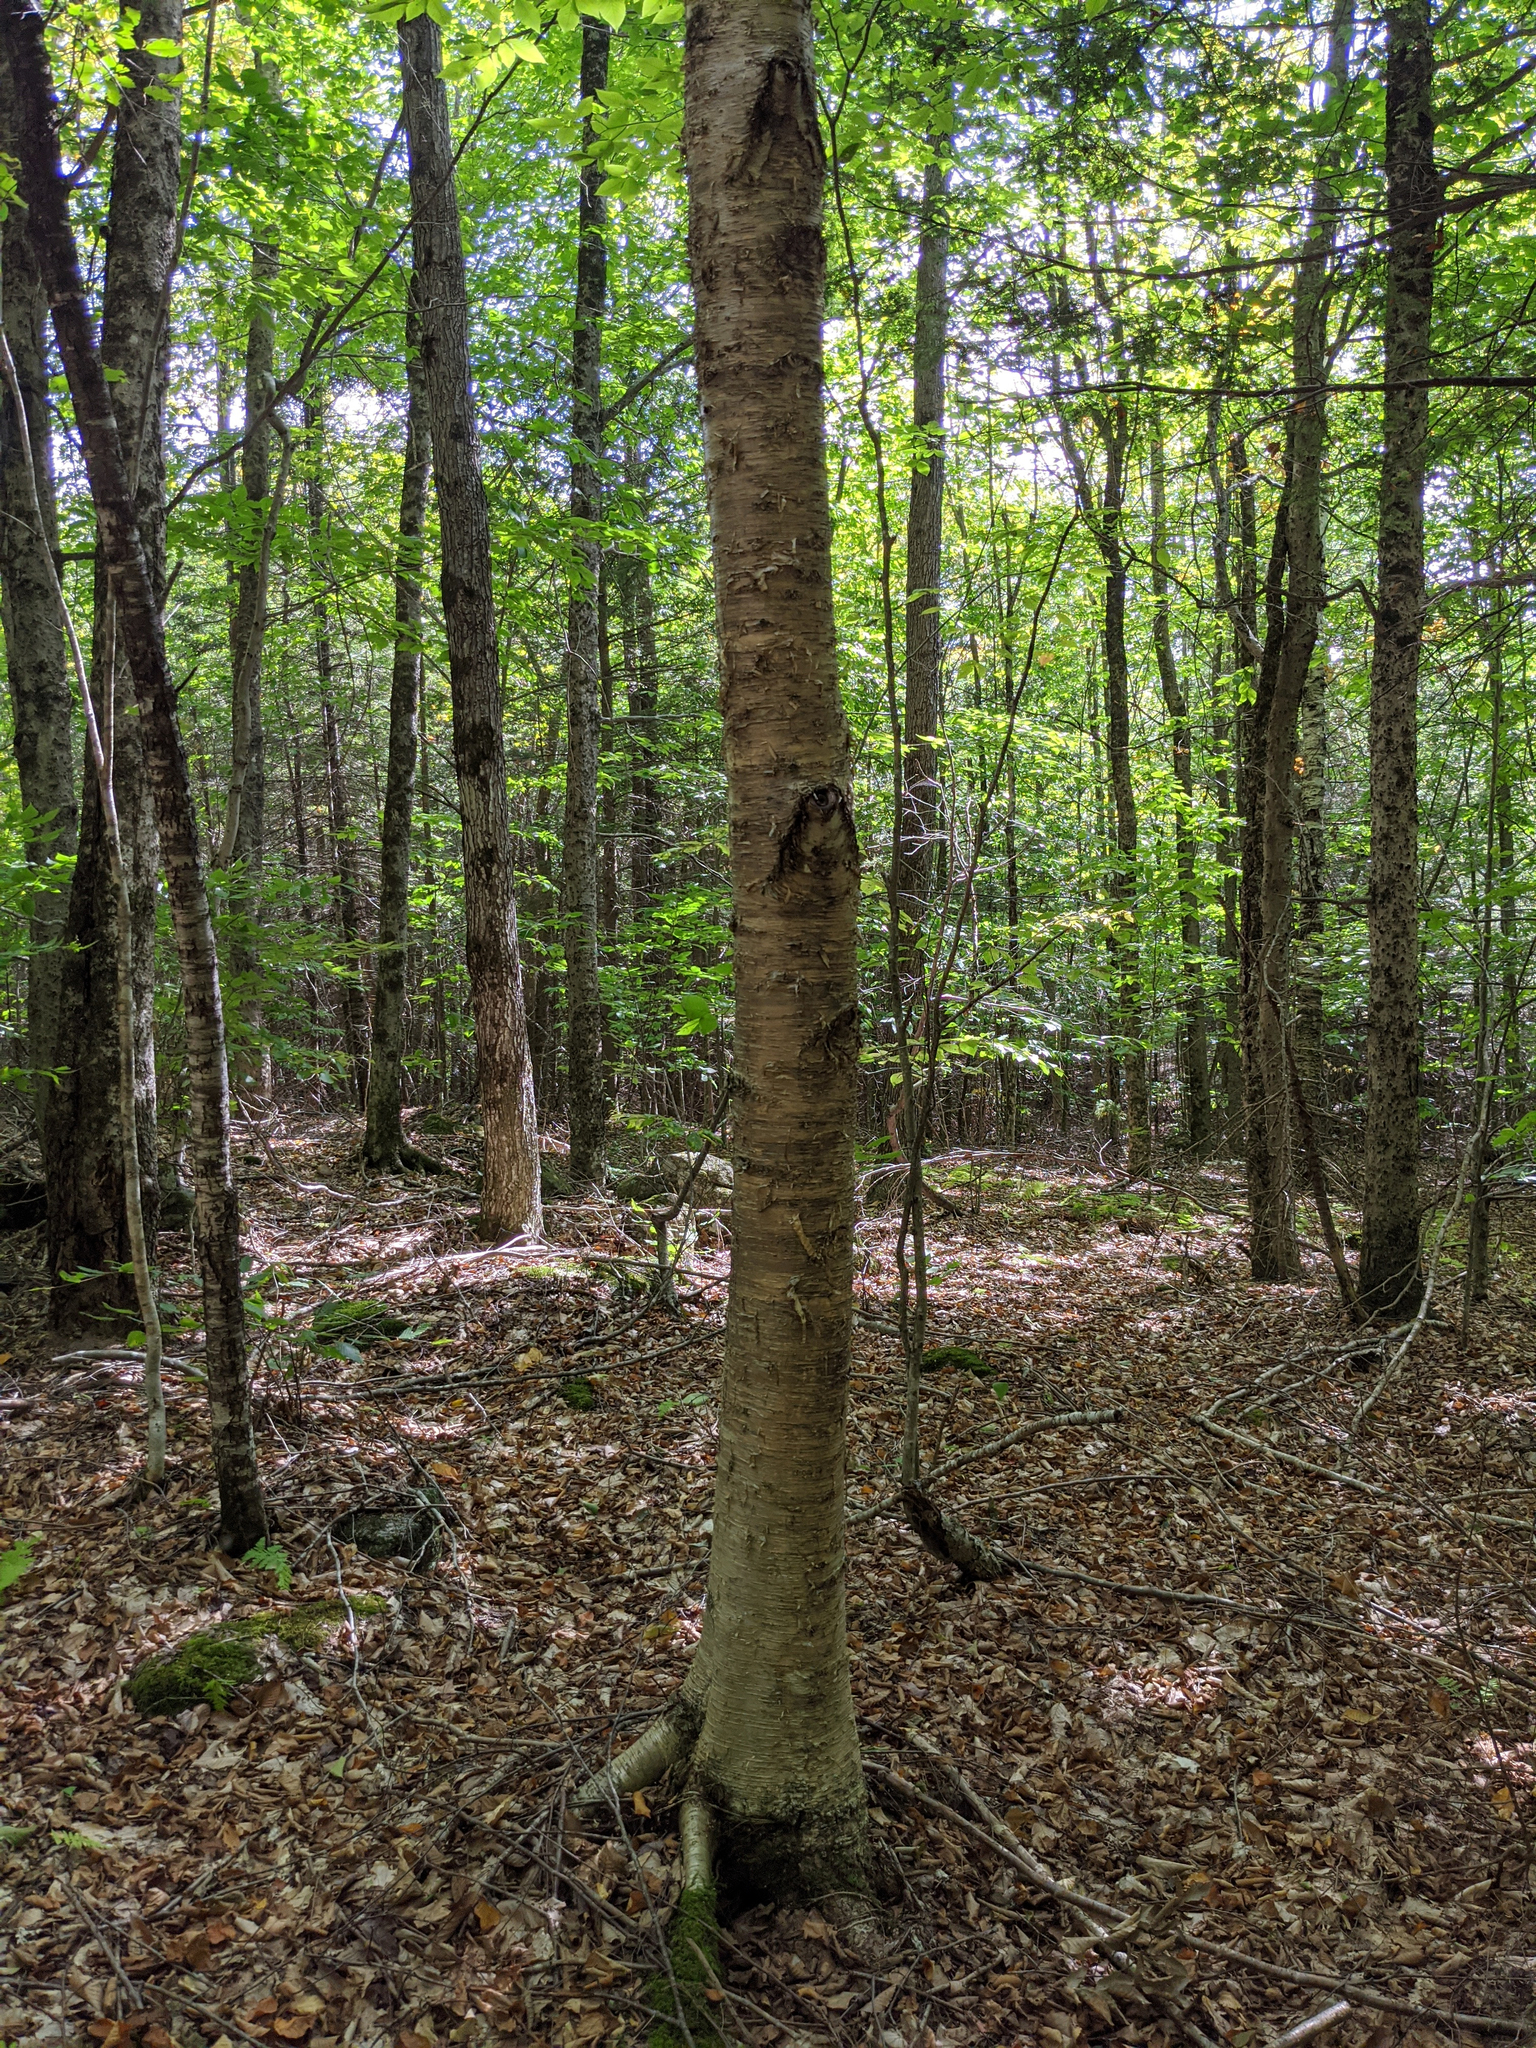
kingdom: Plantae
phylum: Tracheophyta
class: Magnoliopsida
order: Fagales
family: Betulaceae
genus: Betula
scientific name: Betula alleghaniensis
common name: Yellow birch
